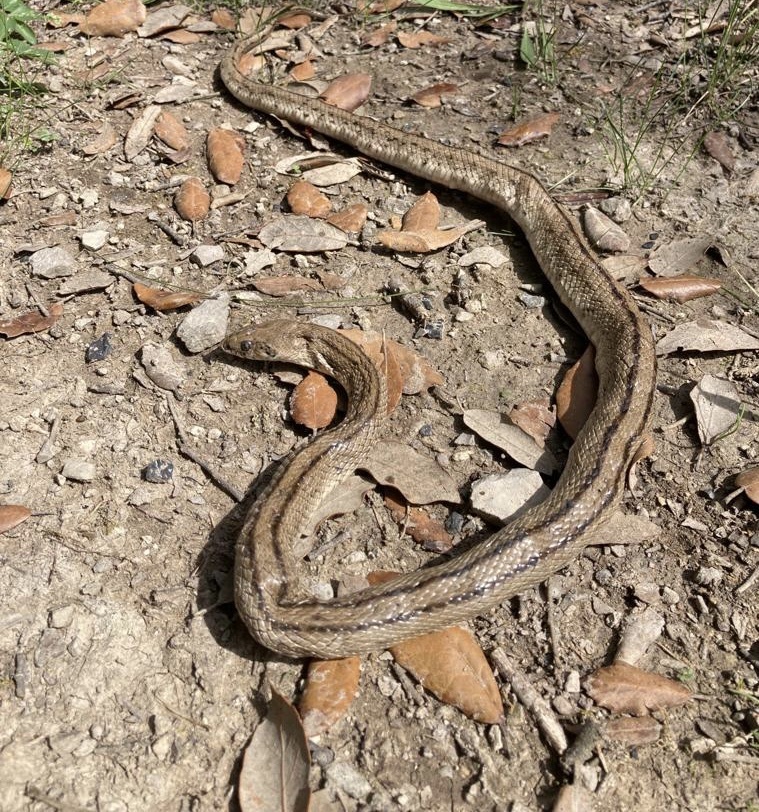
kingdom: Animalia
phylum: Chordata
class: Squamata
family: Colubridae
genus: Zamenis
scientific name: Zamenis scalaris
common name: Ladder snakes
